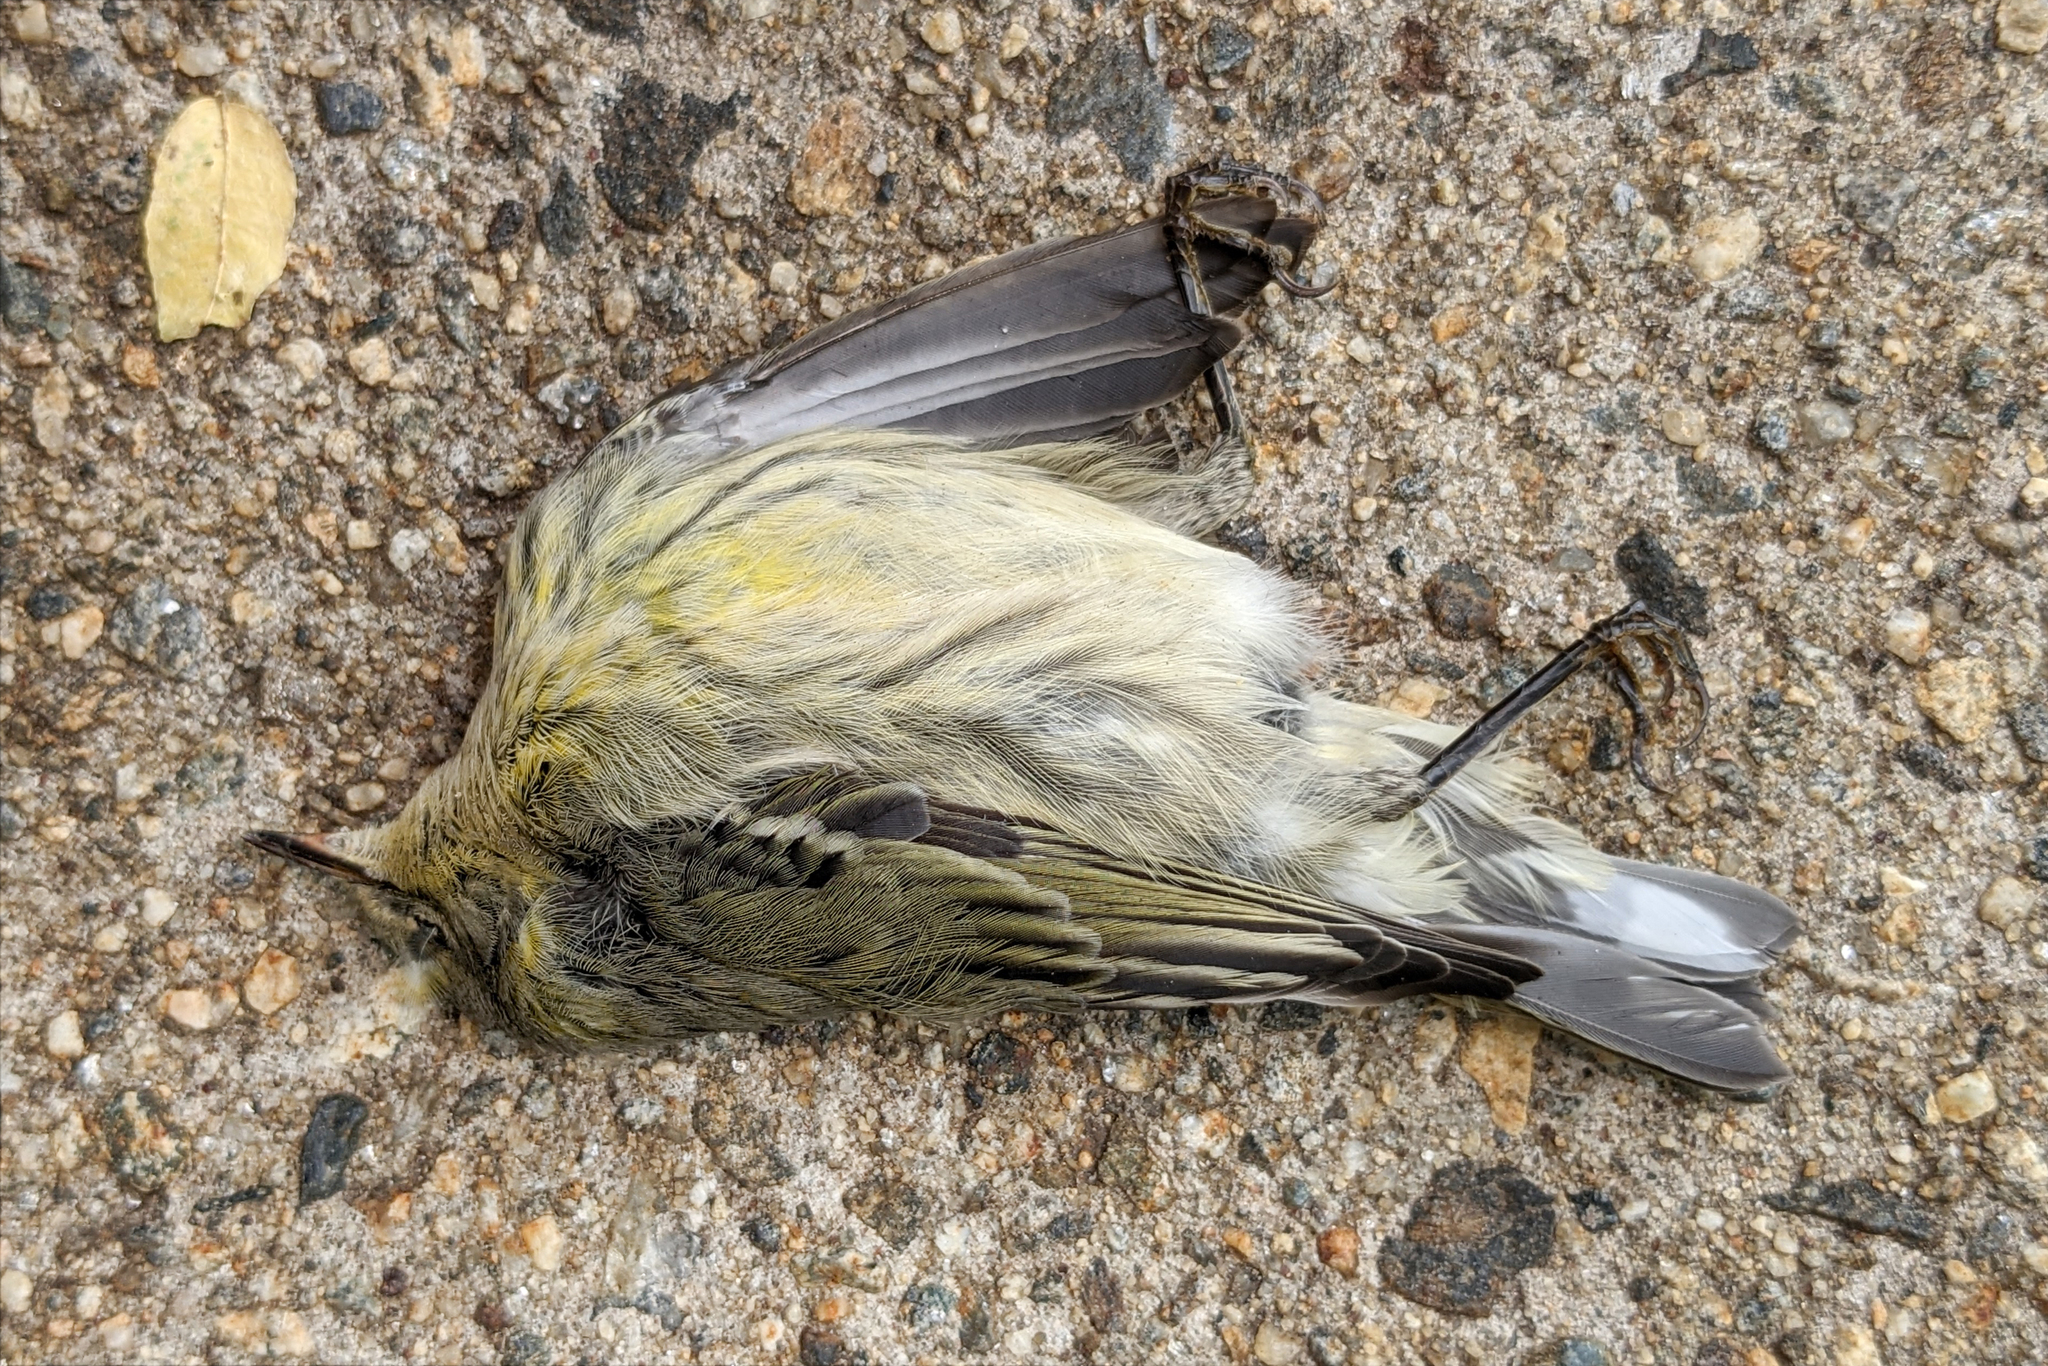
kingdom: Animalia
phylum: Chordata
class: Aves
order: Passeriformes
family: Parulidae
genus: Setophaga
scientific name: Setophaga tigrina
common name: Cape may warbler
